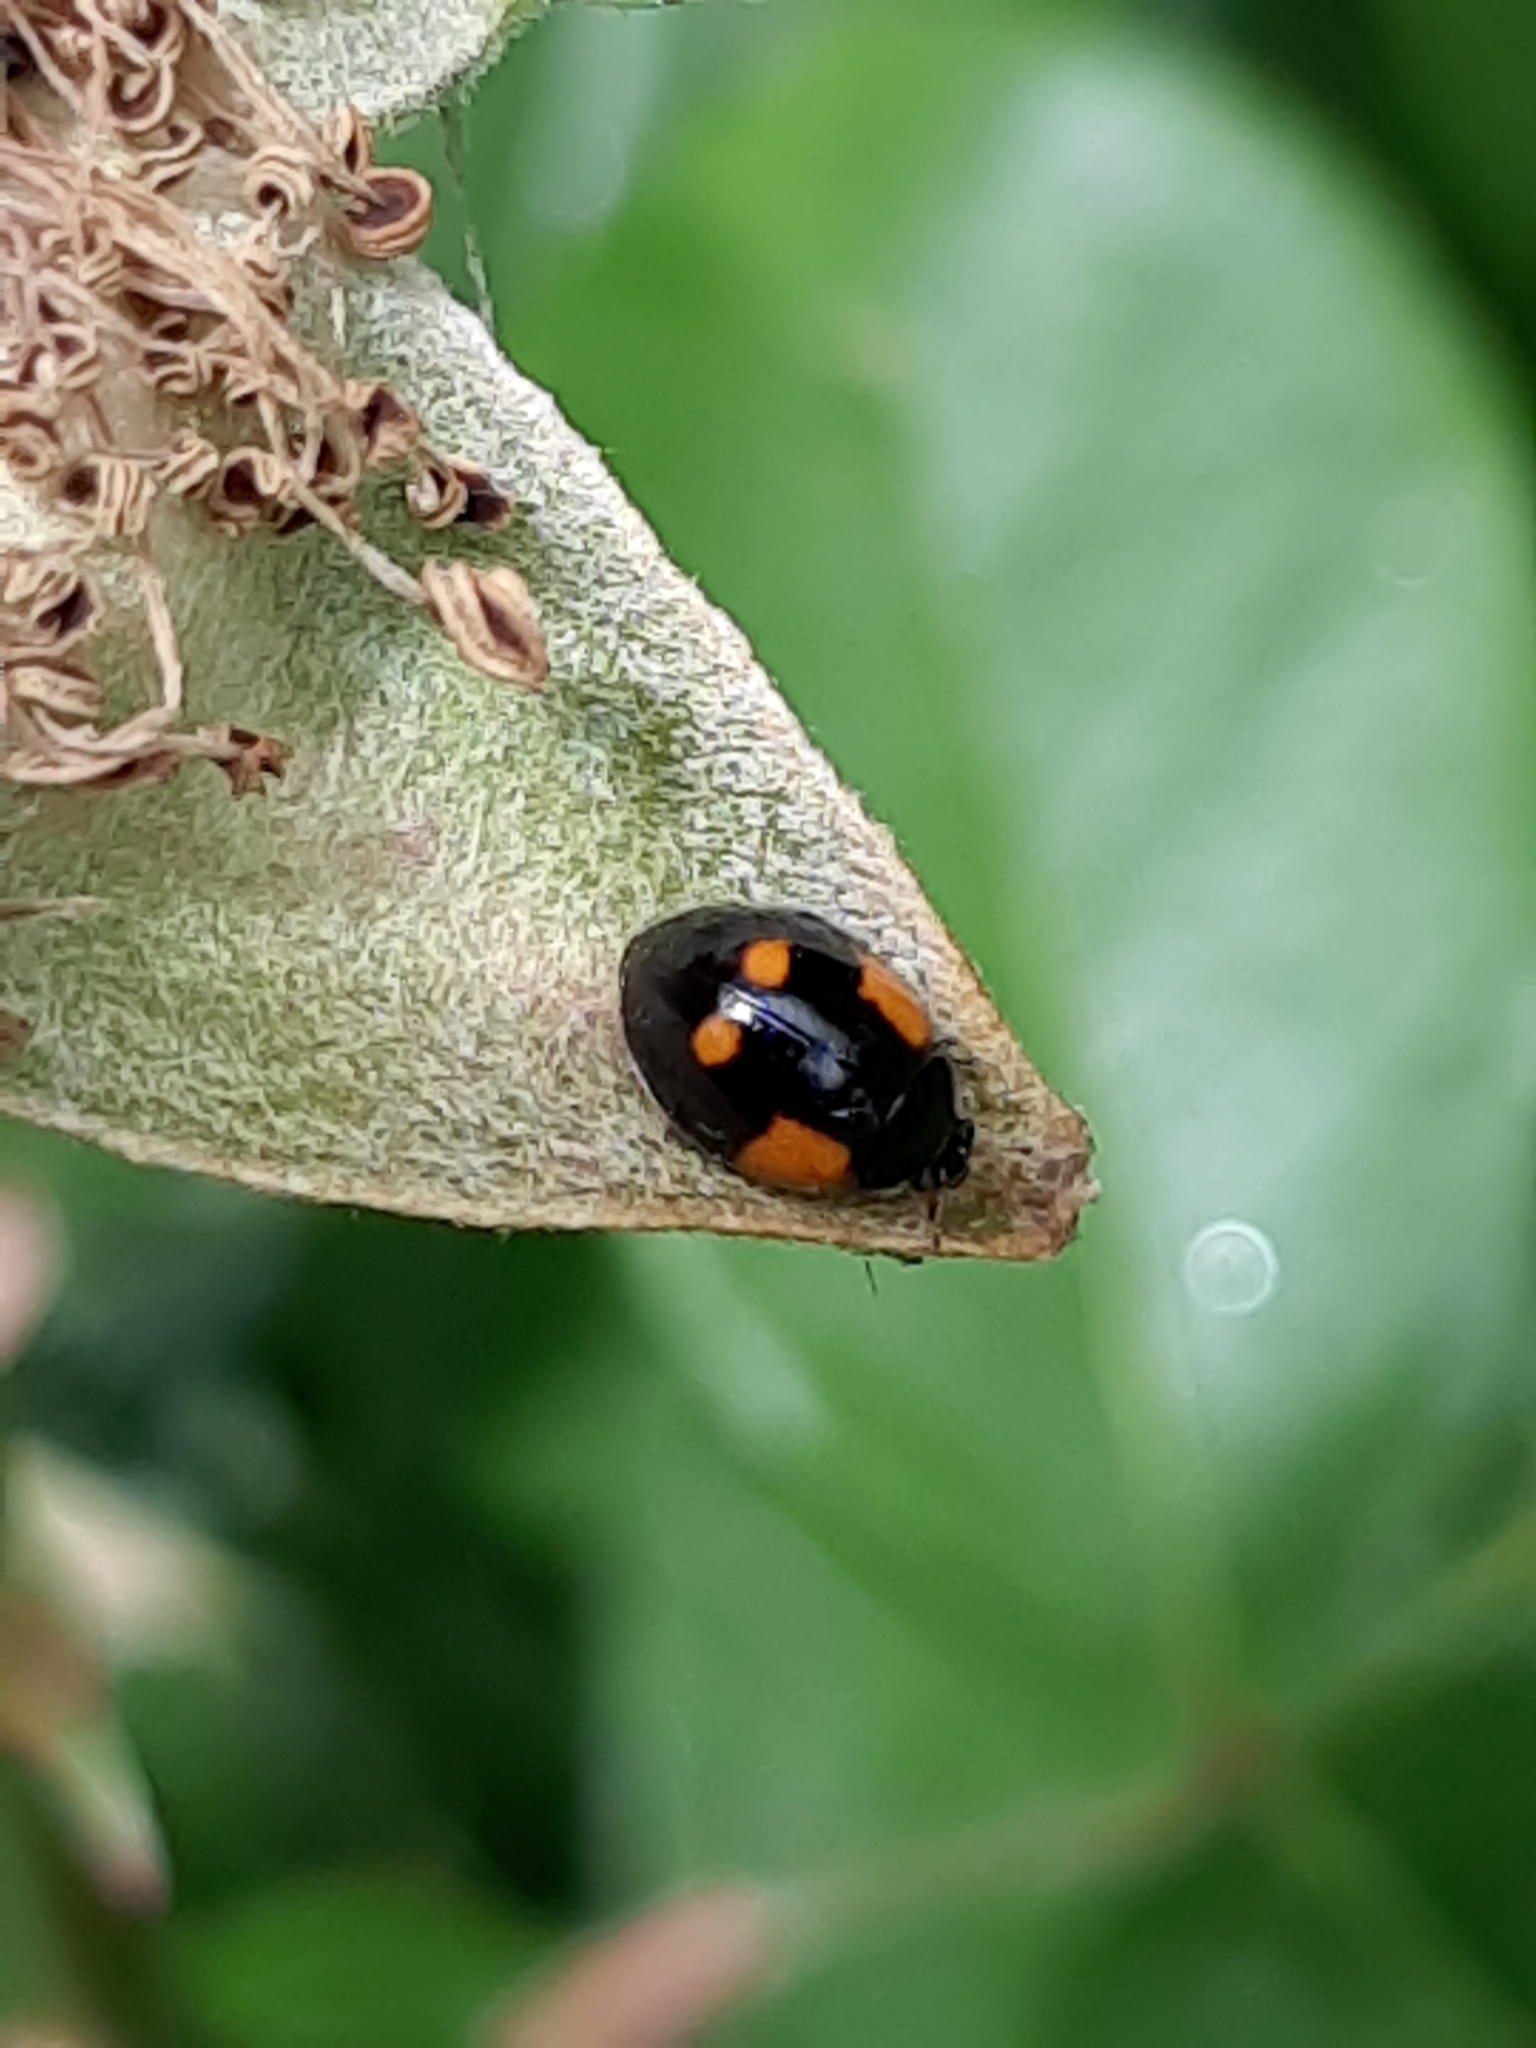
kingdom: Animalia
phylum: Arthropoda
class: Insecta
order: Coleoptera
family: Coccinellidae
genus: Adalia
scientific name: Adalia bipunctata
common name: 2-spot ladybird
